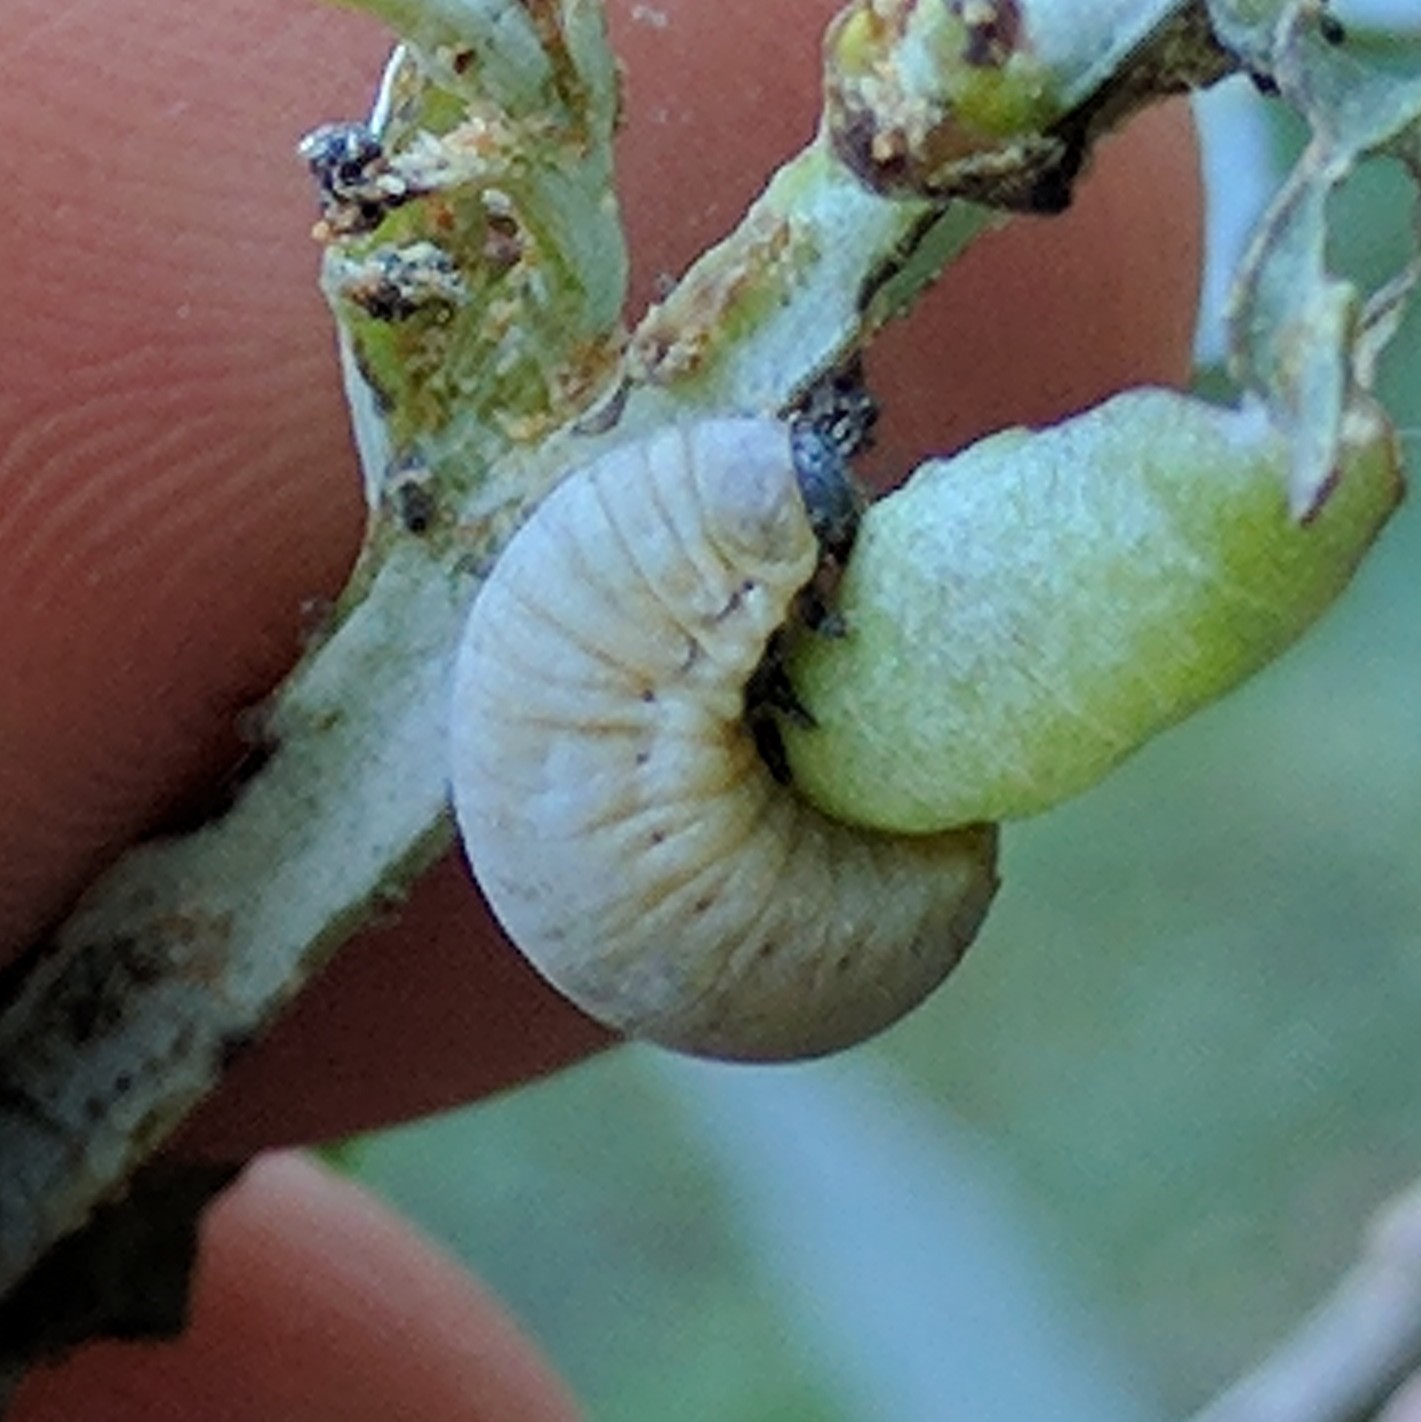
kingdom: Animalia
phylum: Arthropoda
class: Insecta
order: Coleoptera
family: Chrysomelidae
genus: Paropsisterna
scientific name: Paropsisterna m-fuscum
